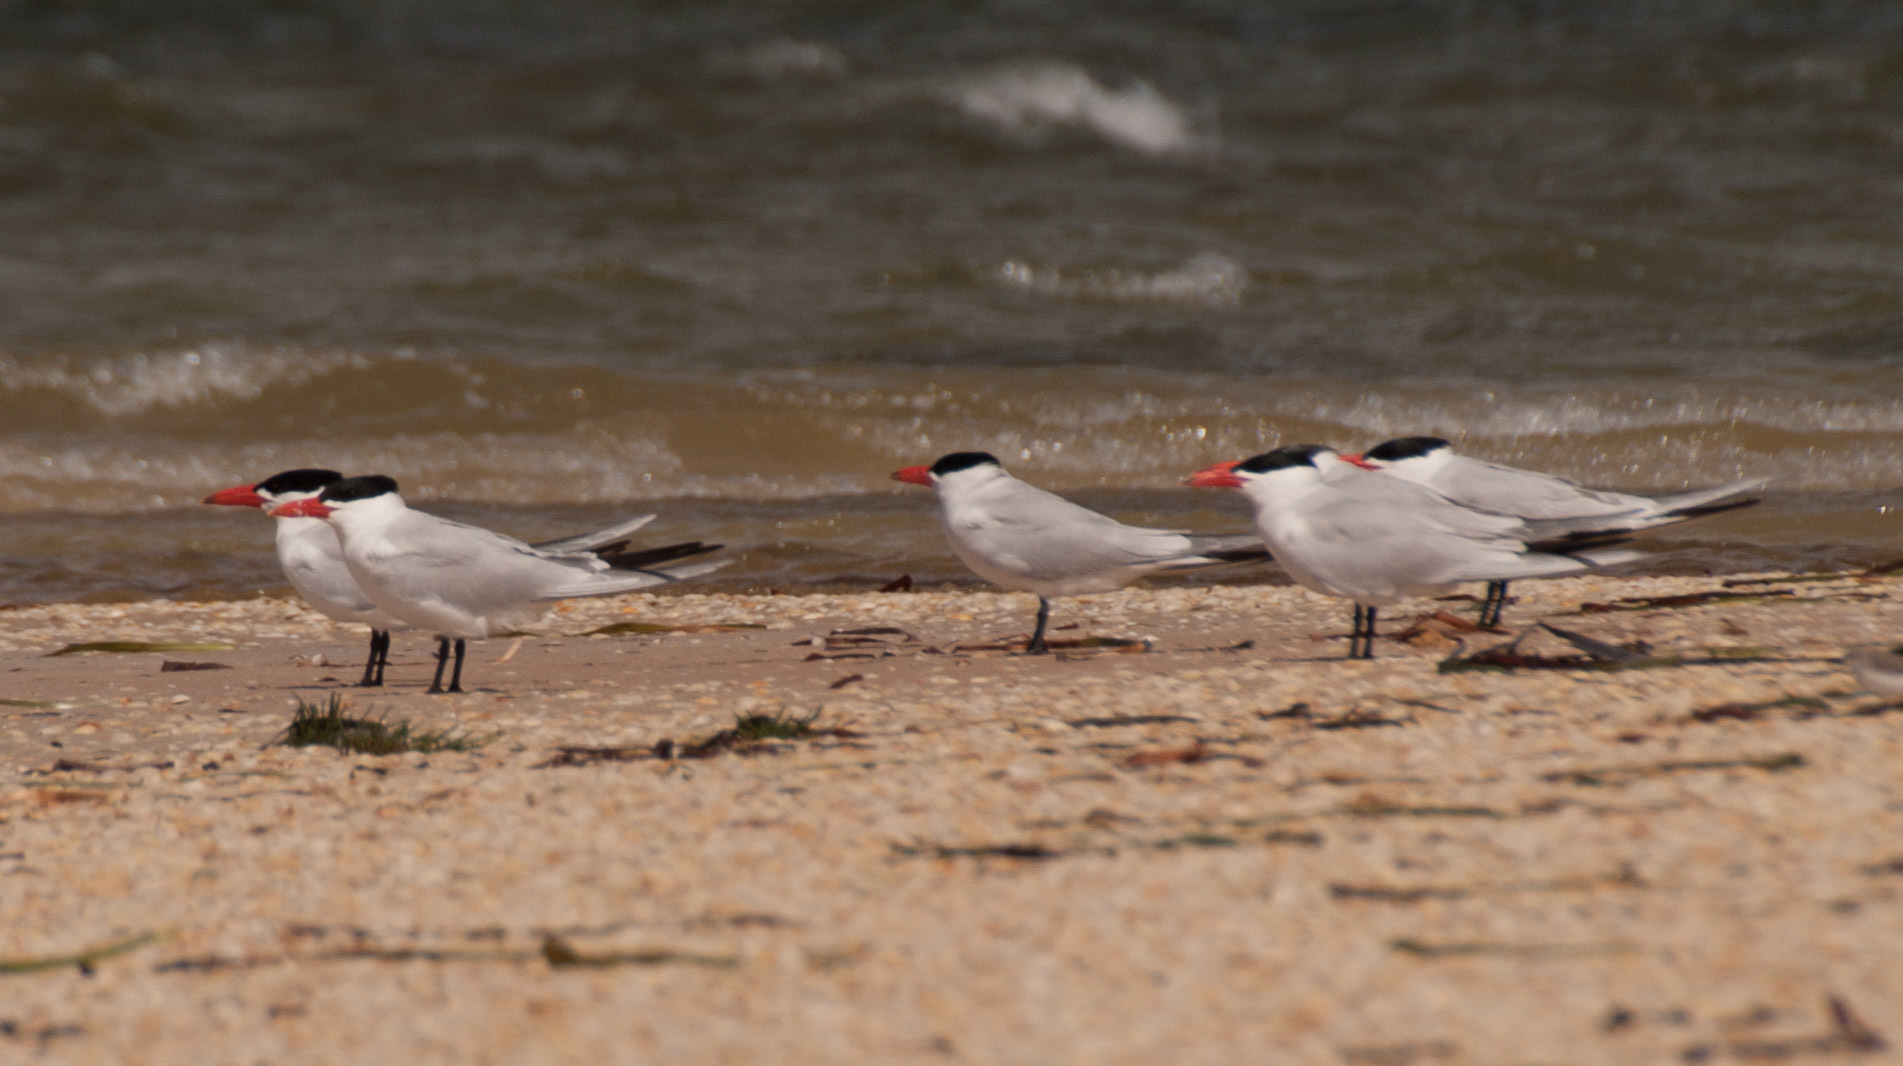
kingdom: Animalia
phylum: Chordata
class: Aves
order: Charadriiformes
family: Laridae
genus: Hydroprogne
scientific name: Hydroprogne caspia
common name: Caspian tern
